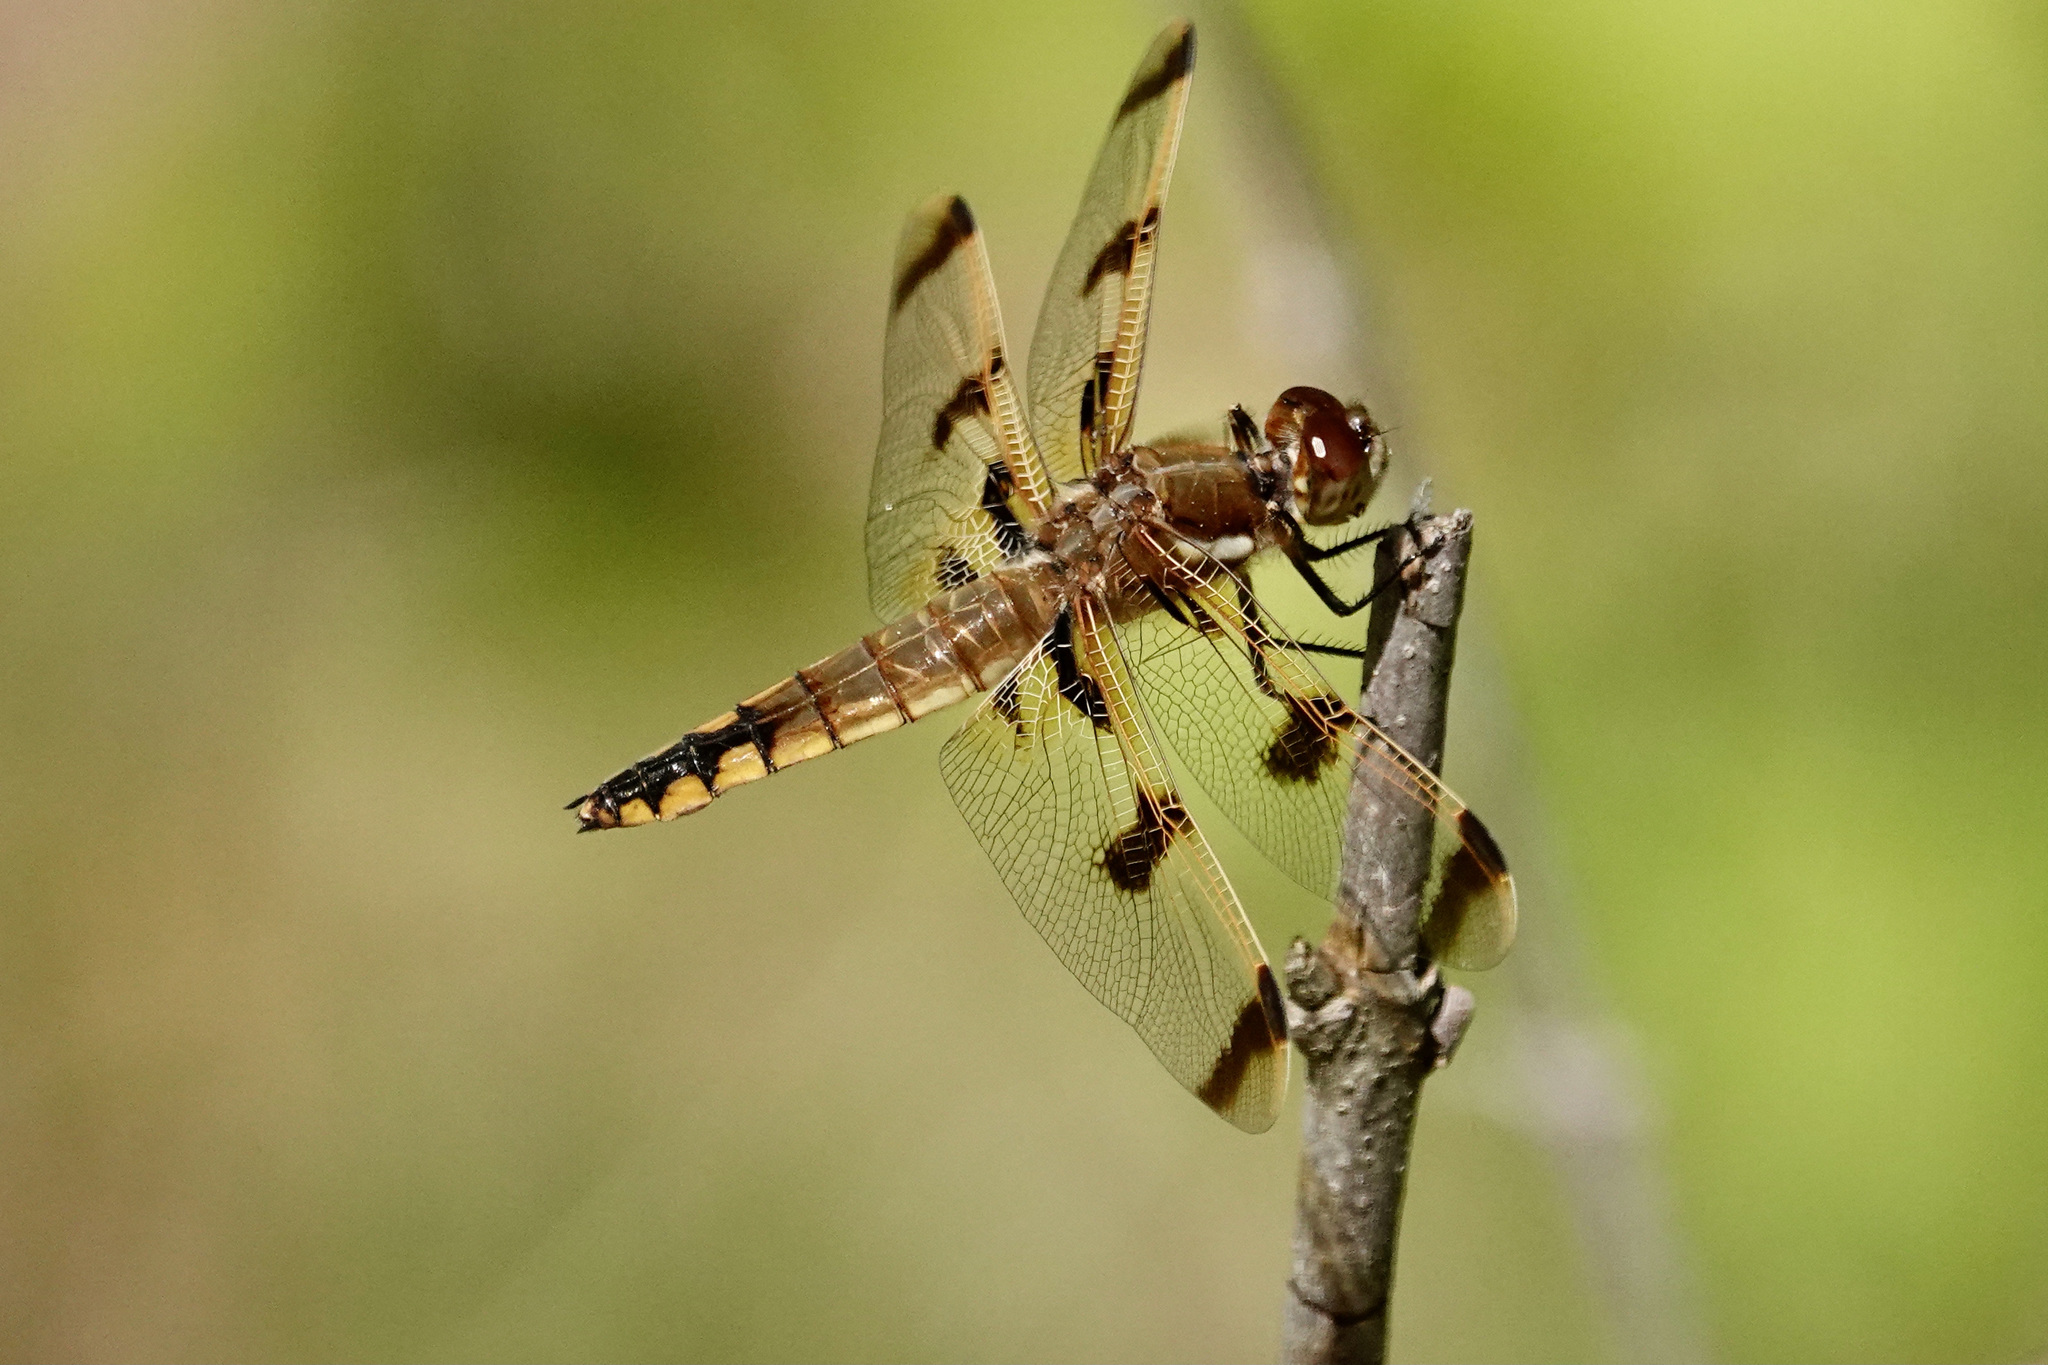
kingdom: Animalia
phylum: Arthropoda
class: Insecta
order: Odonata
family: Libellulidae
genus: Libellula
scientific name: Libellula semifasciata
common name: Painted skimmer
